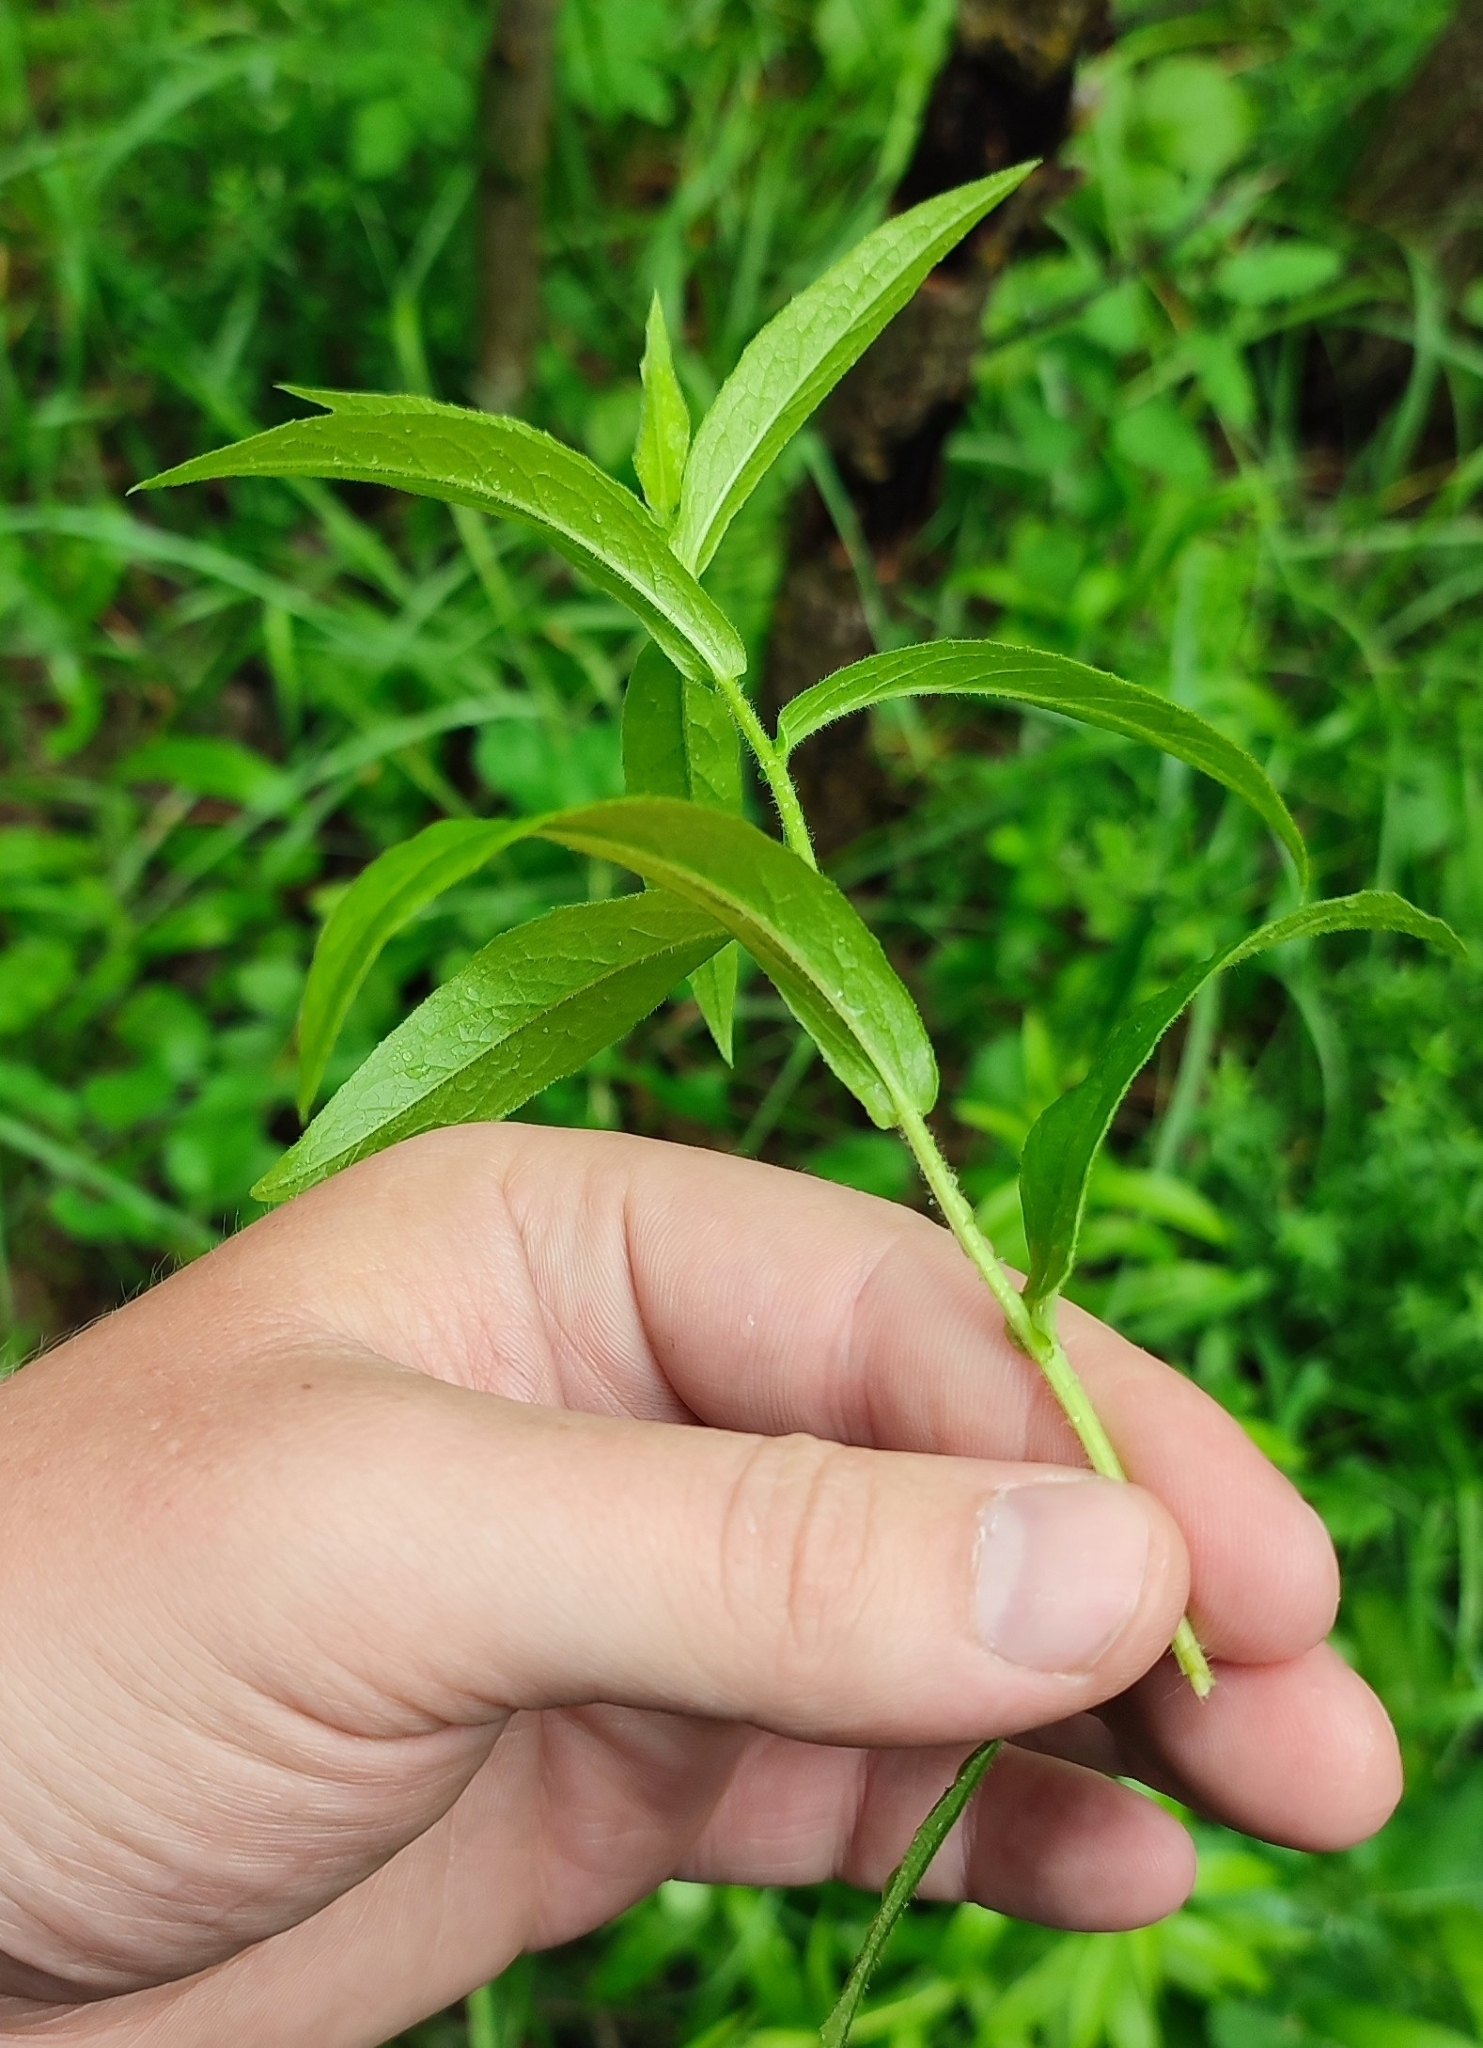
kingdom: Plantae
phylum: Tracheophyta
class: Magnoliopsida
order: Asterales
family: Asteraceae
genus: Pentanema
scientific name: Pentanema salicinum
